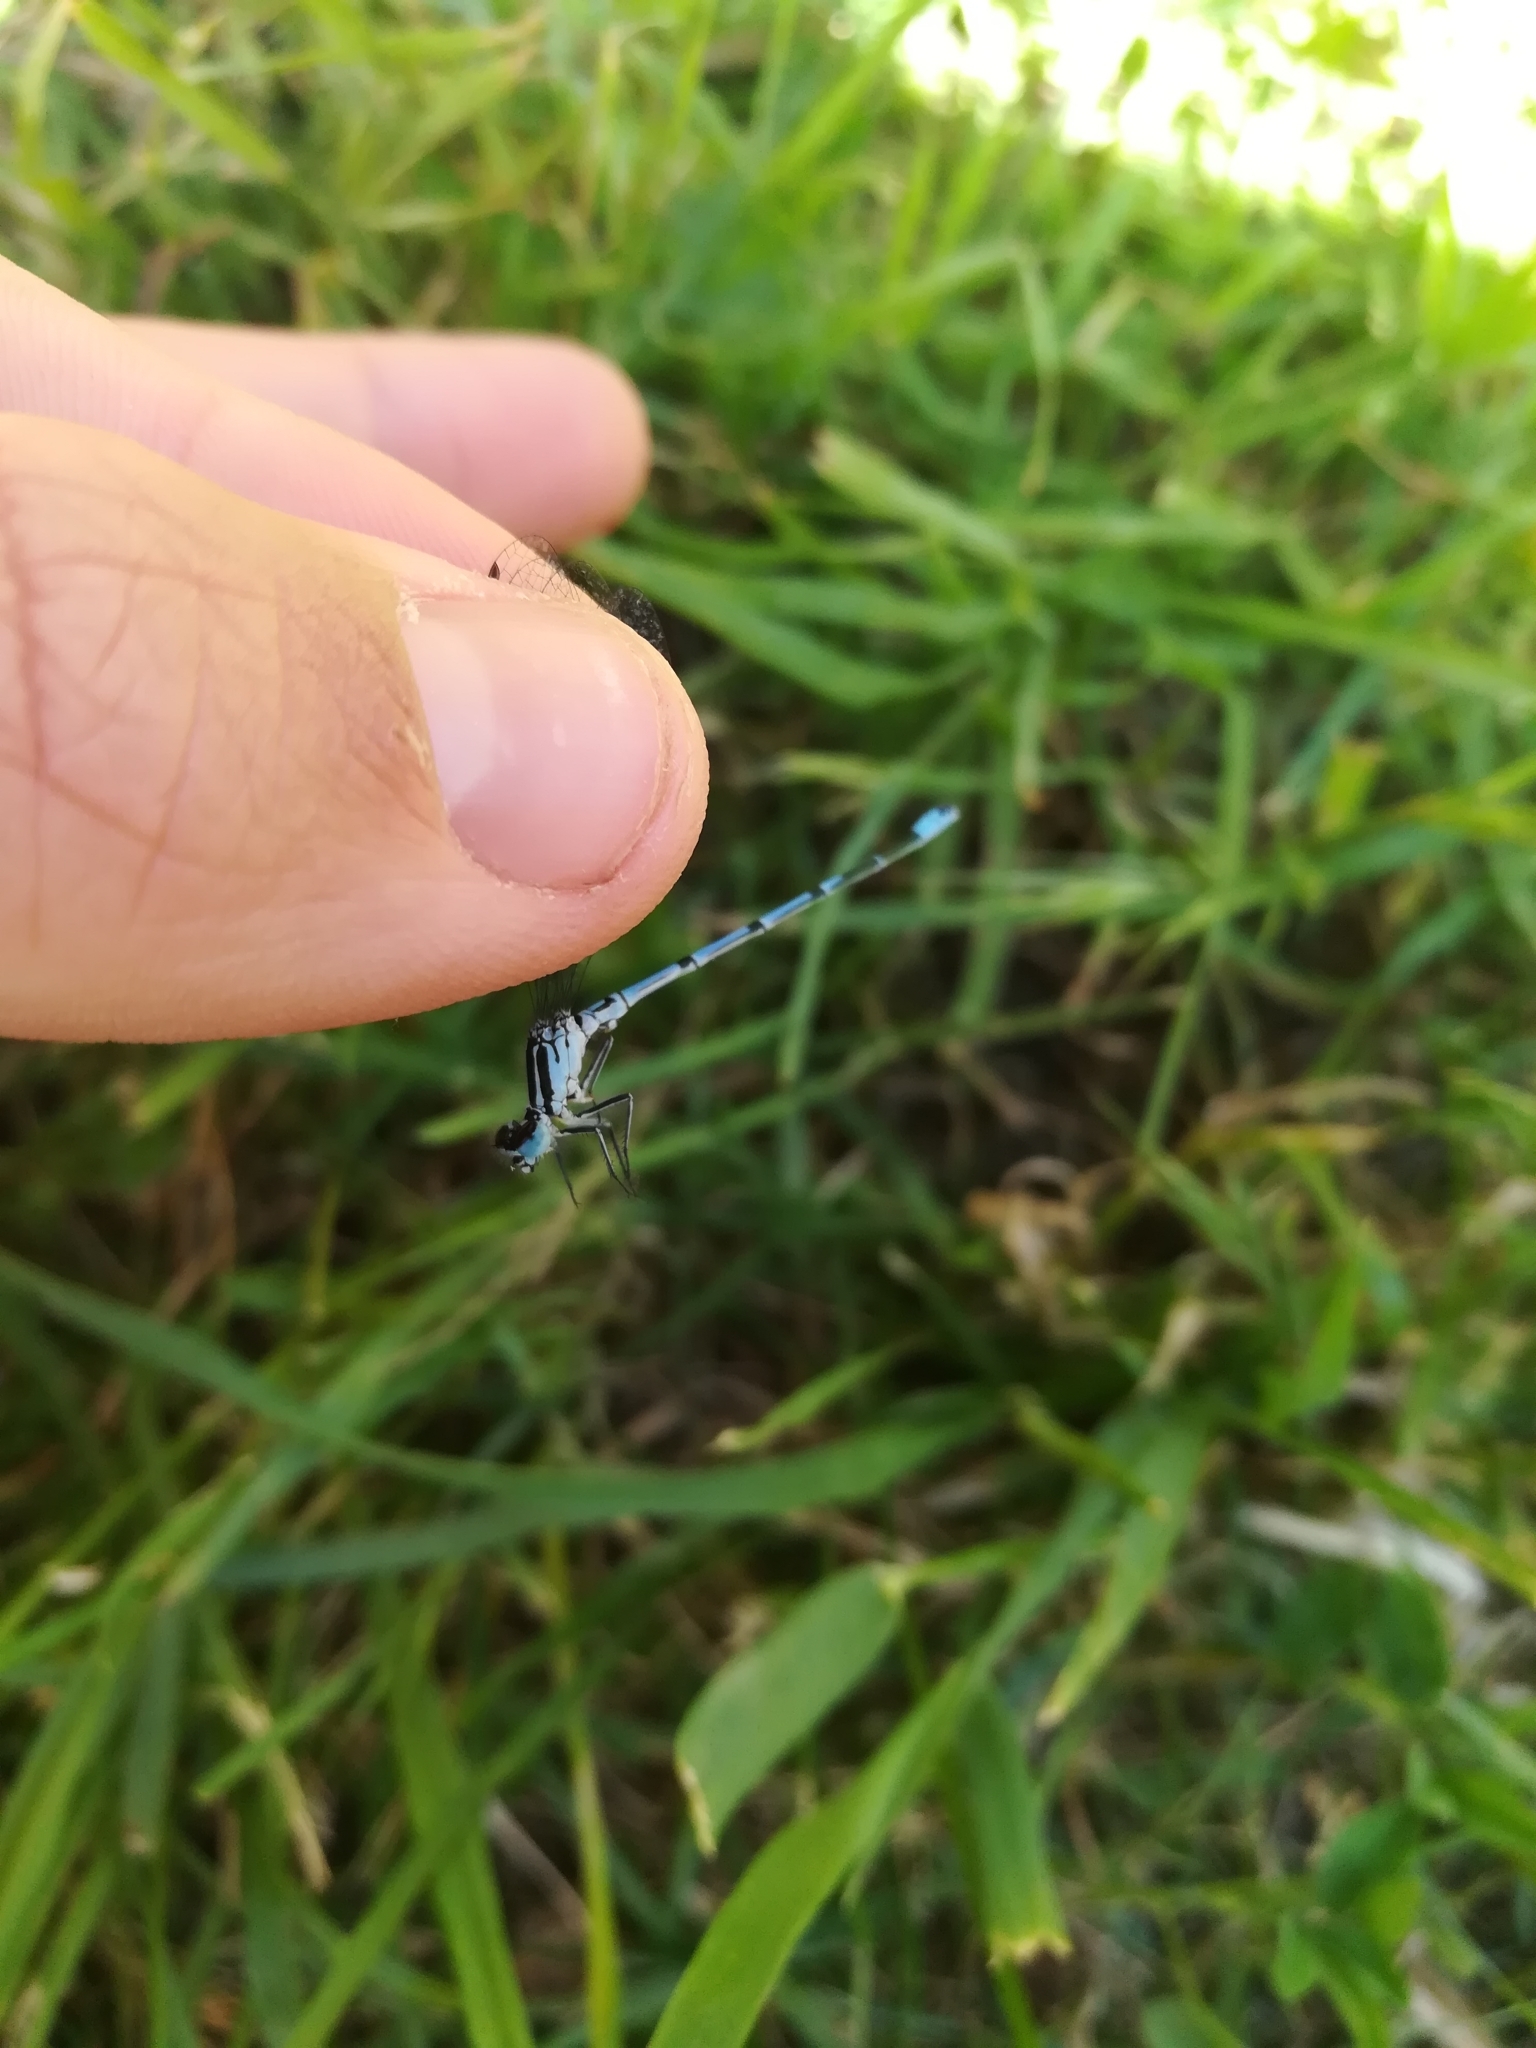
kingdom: Animalia
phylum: Arthropoda
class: Insecta
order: Odonata
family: Coenagrionidae
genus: Coenagrion
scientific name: Coenagrion puella
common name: Azure damselfly
